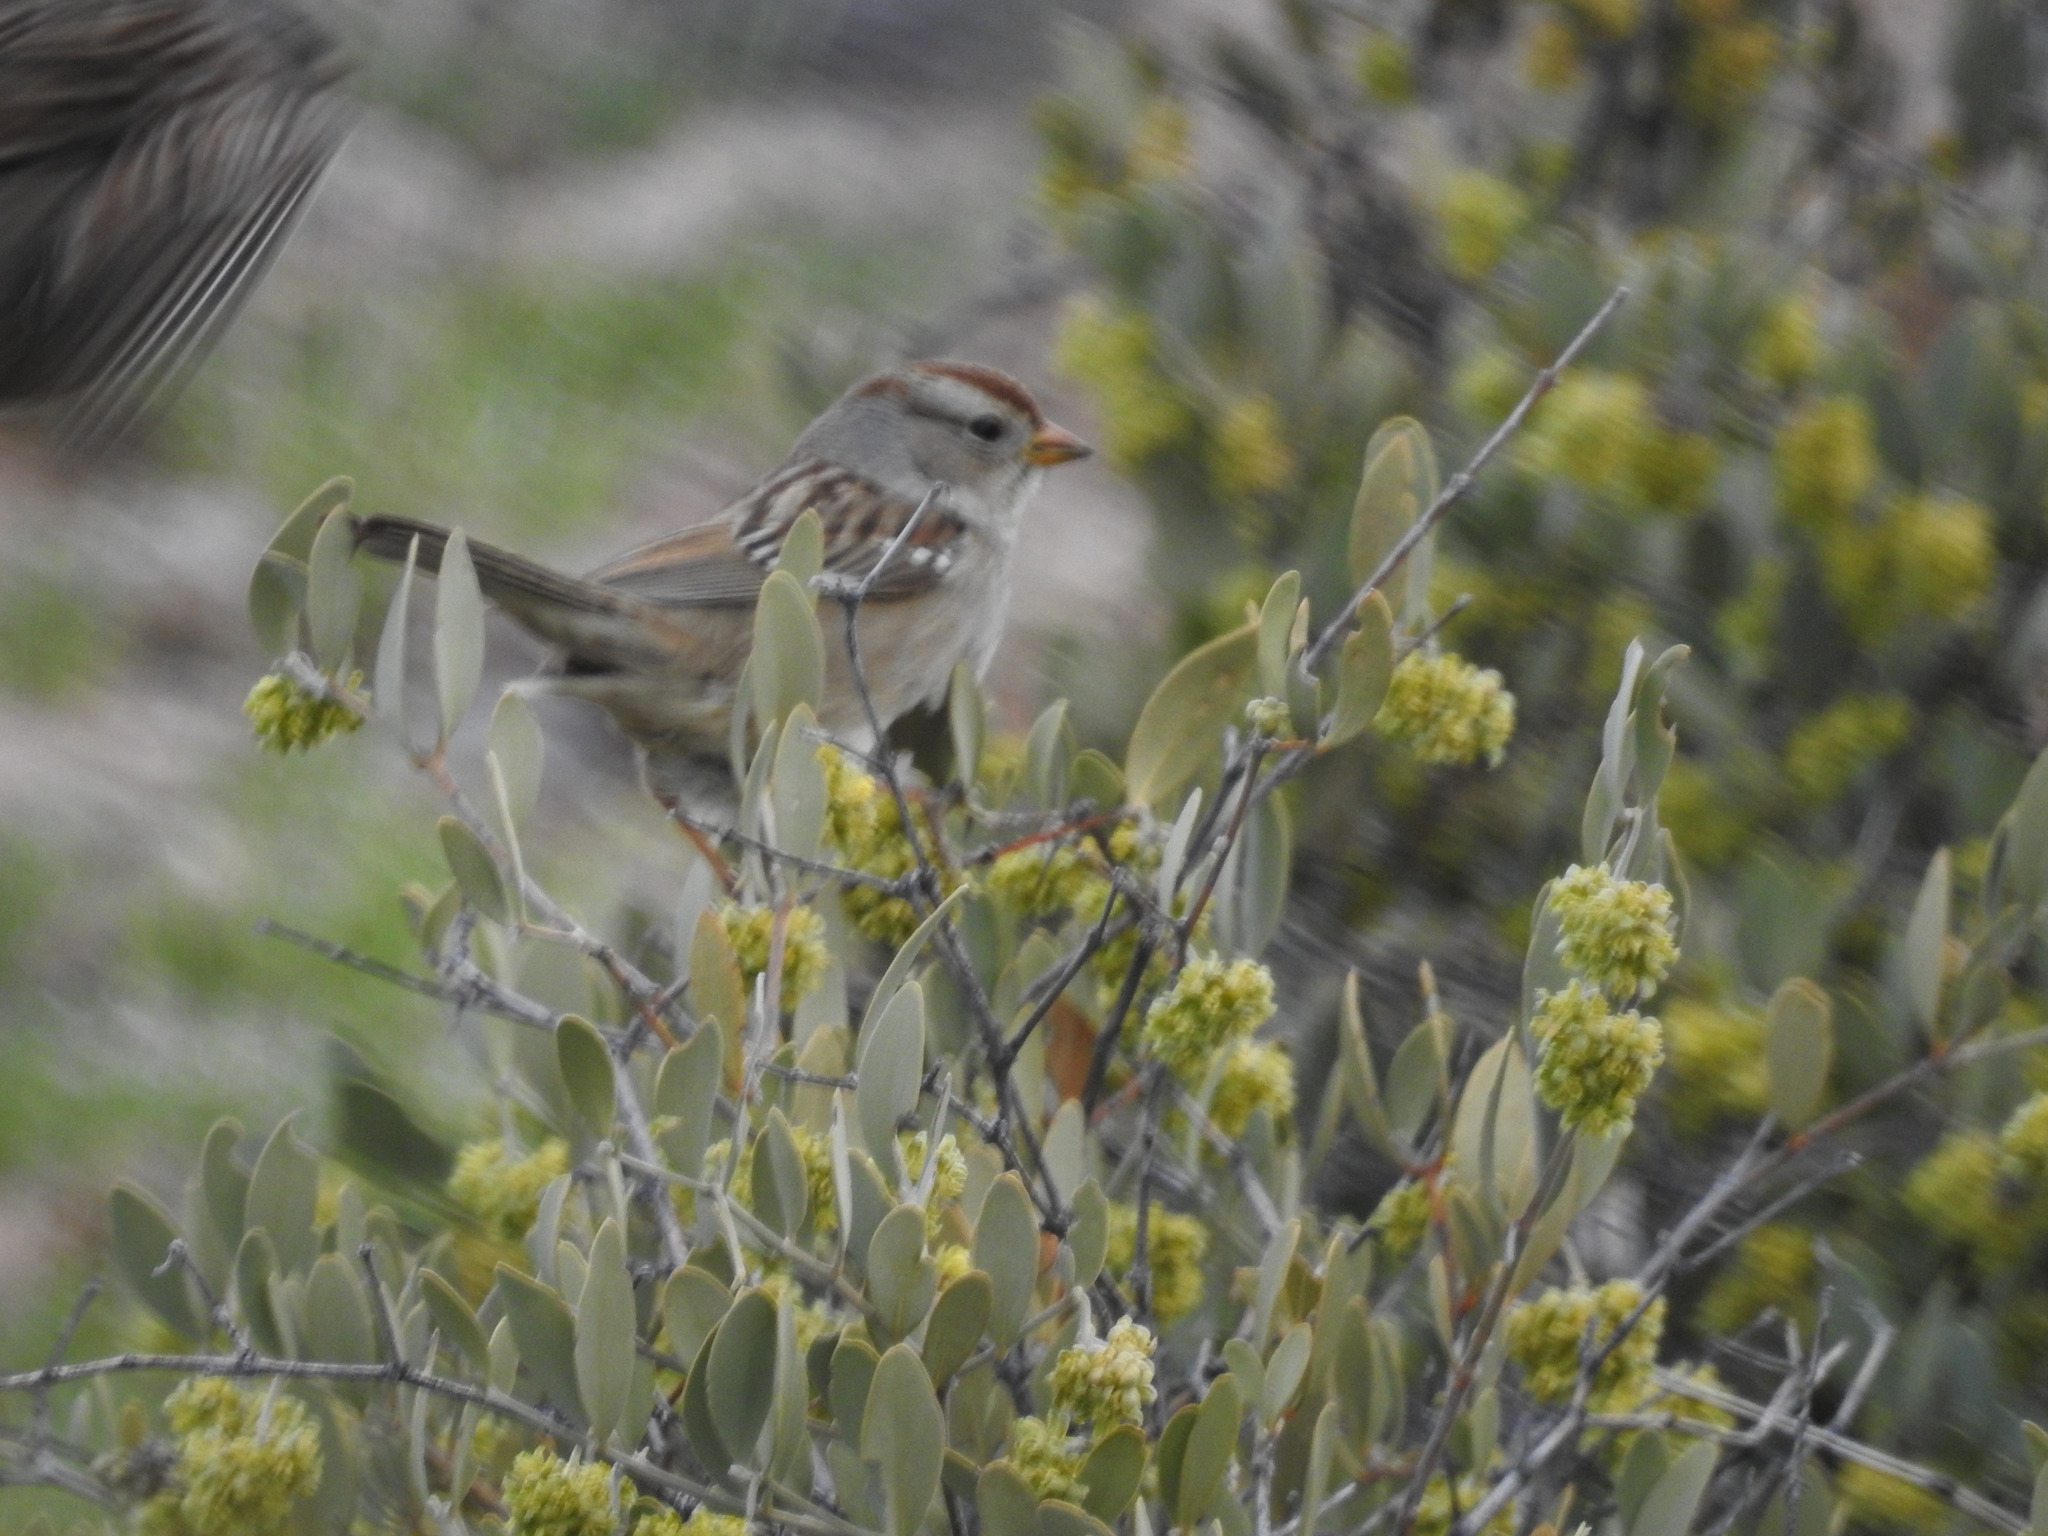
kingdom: Animalia
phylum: Chordata
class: Aves
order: Passeriformes
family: Passerellidae
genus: Zonotrichia
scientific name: Zonotrichia leucophrys
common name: White-crowned sparrow
